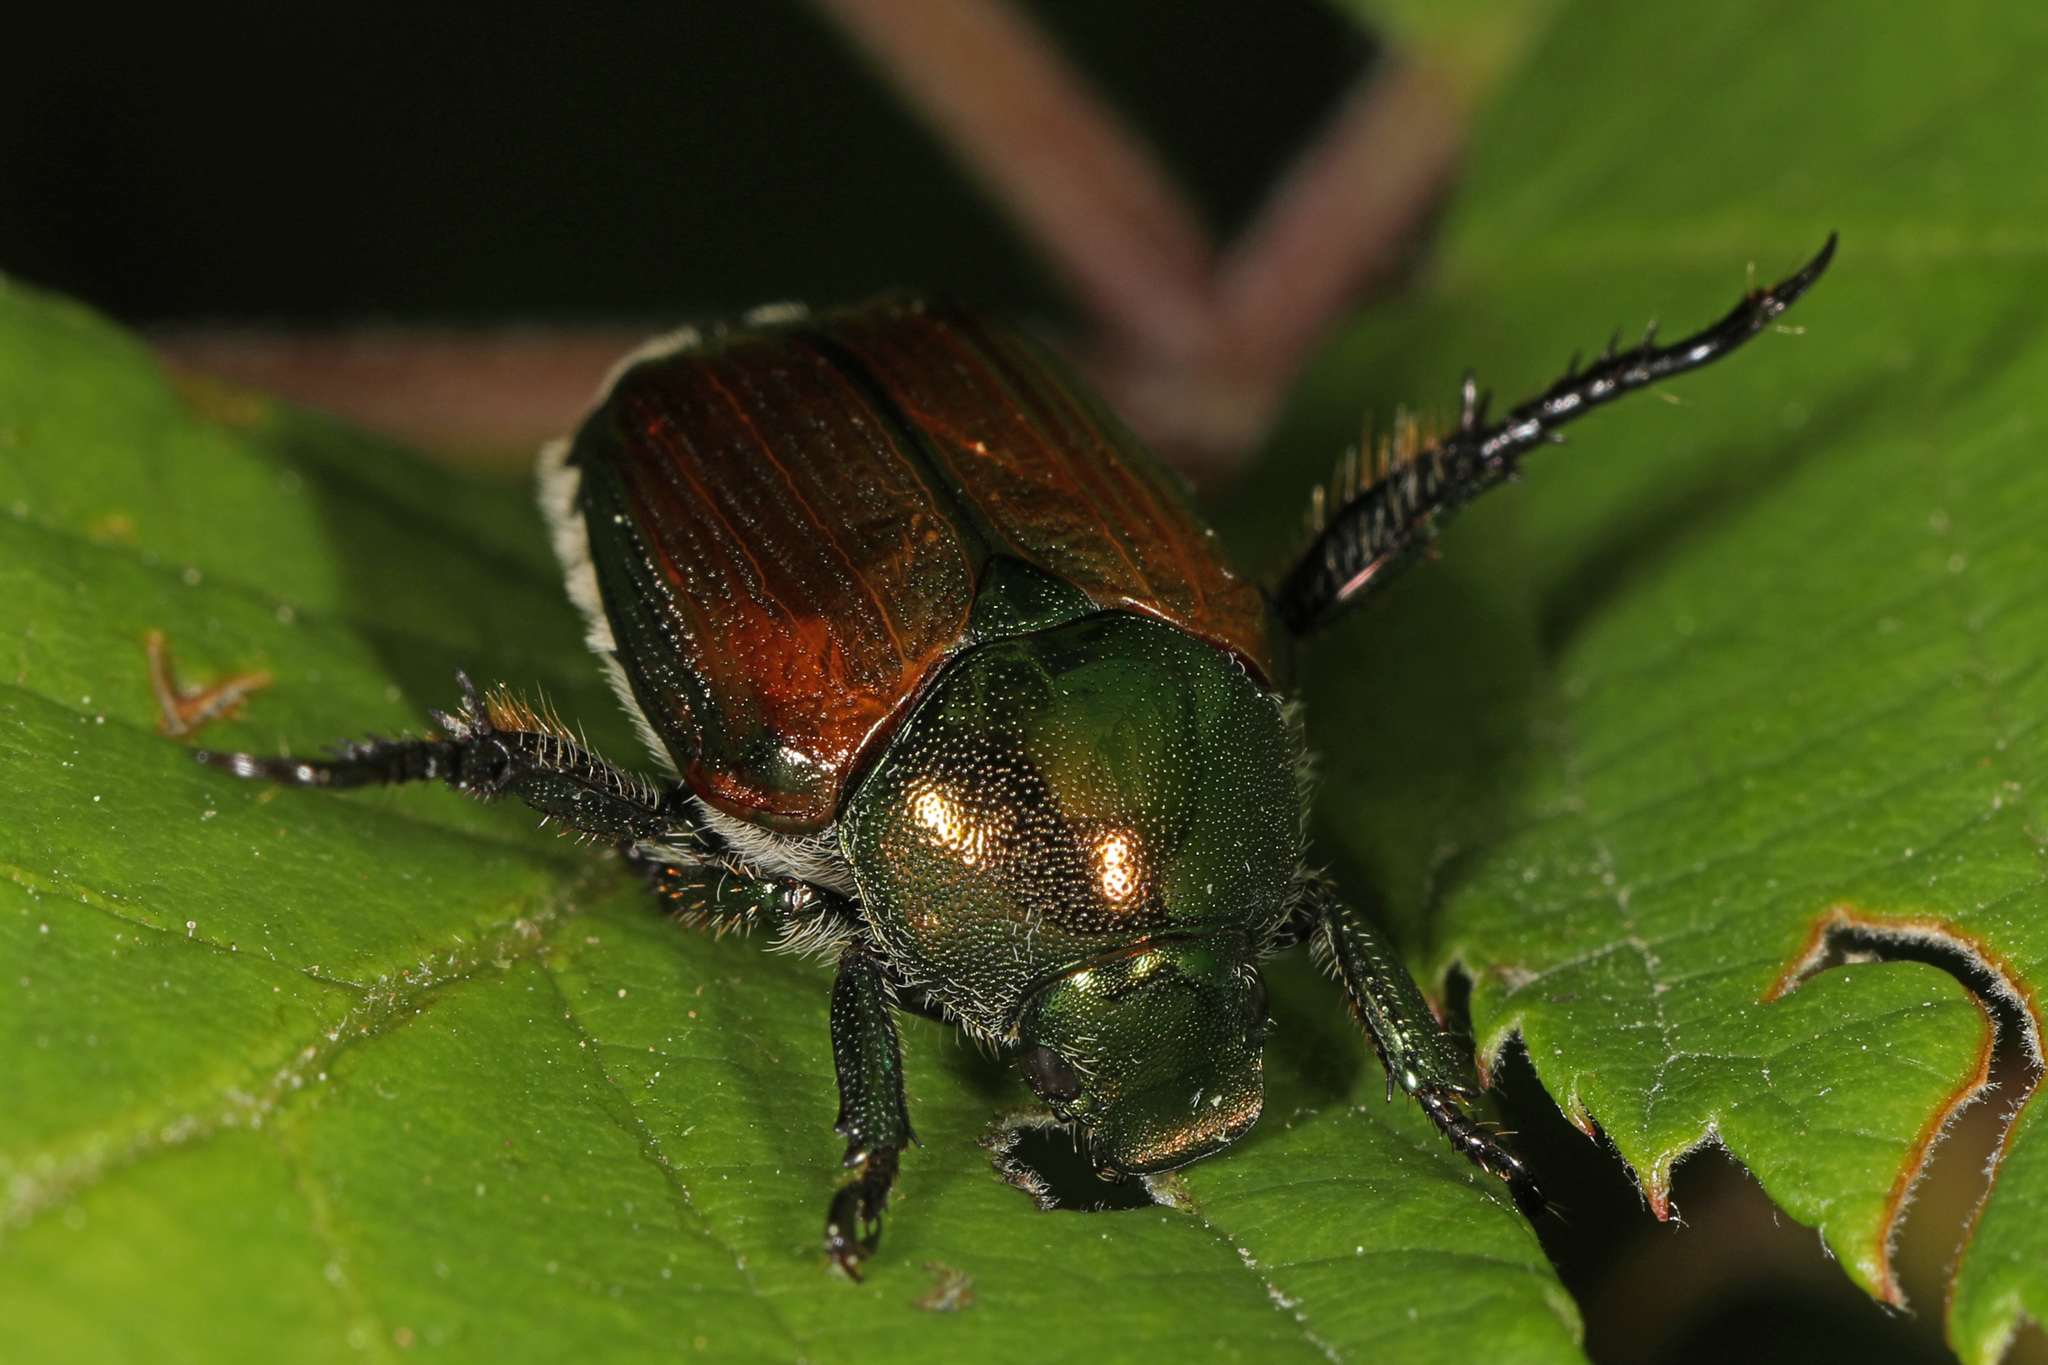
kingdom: Animalia
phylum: Arthropoda
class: Insecta
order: Coleoptera
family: Scarabaeidae
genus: Popillia
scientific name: Popillia japonica
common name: Japanese beetle
